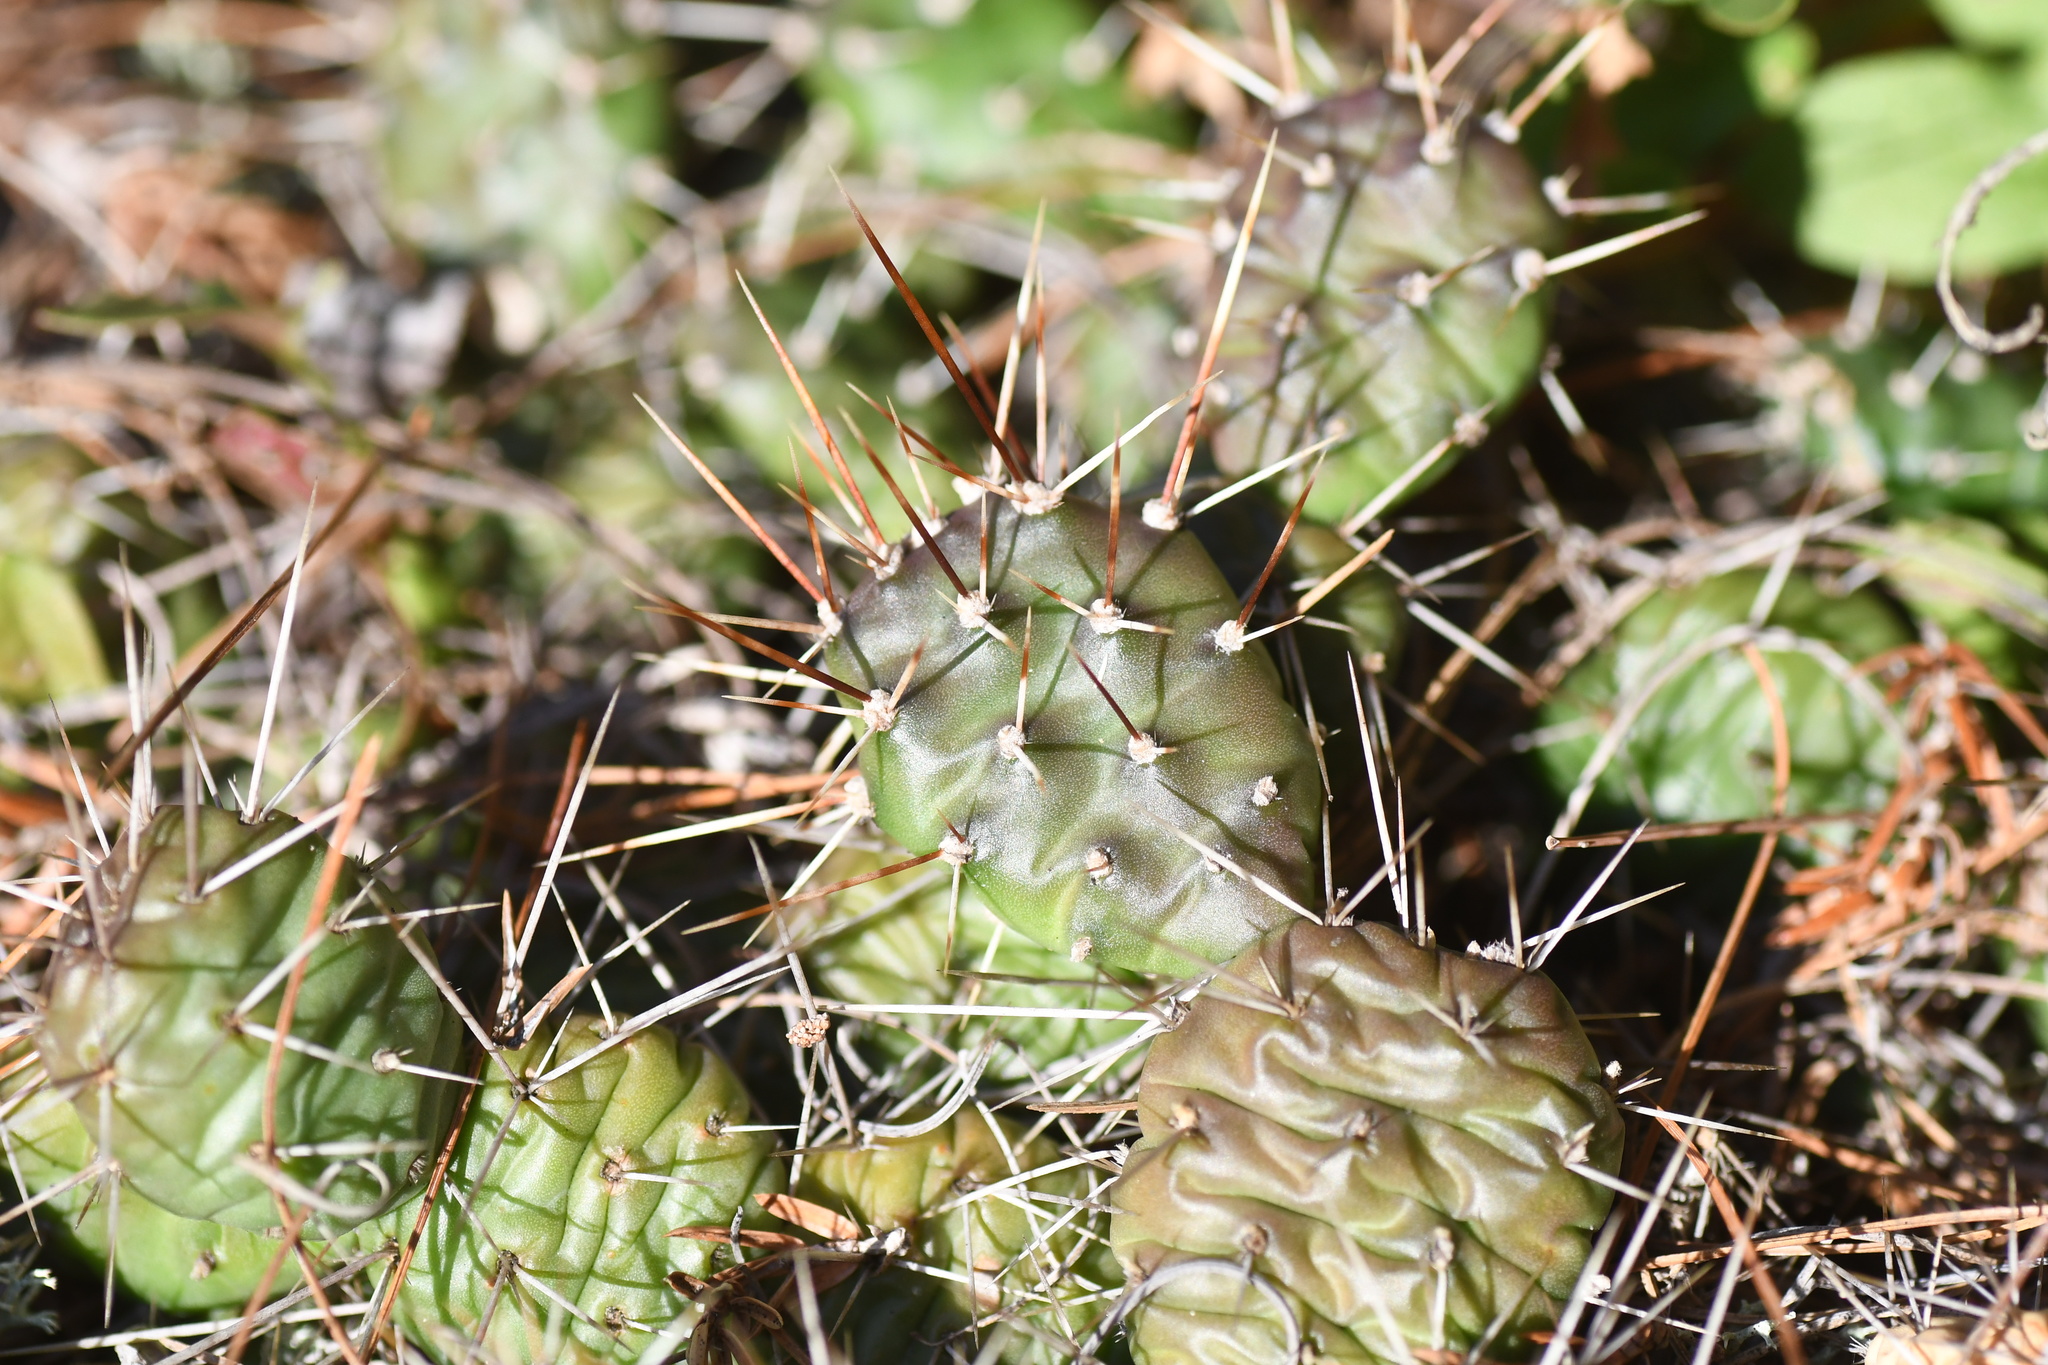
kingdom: Plantae
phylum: Tracheophyta
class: Magnoliopsida
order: Caryophyllales
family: Cactaceae
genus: Opuntia
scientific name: Opuntia fragilis
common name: Brittle cactus
